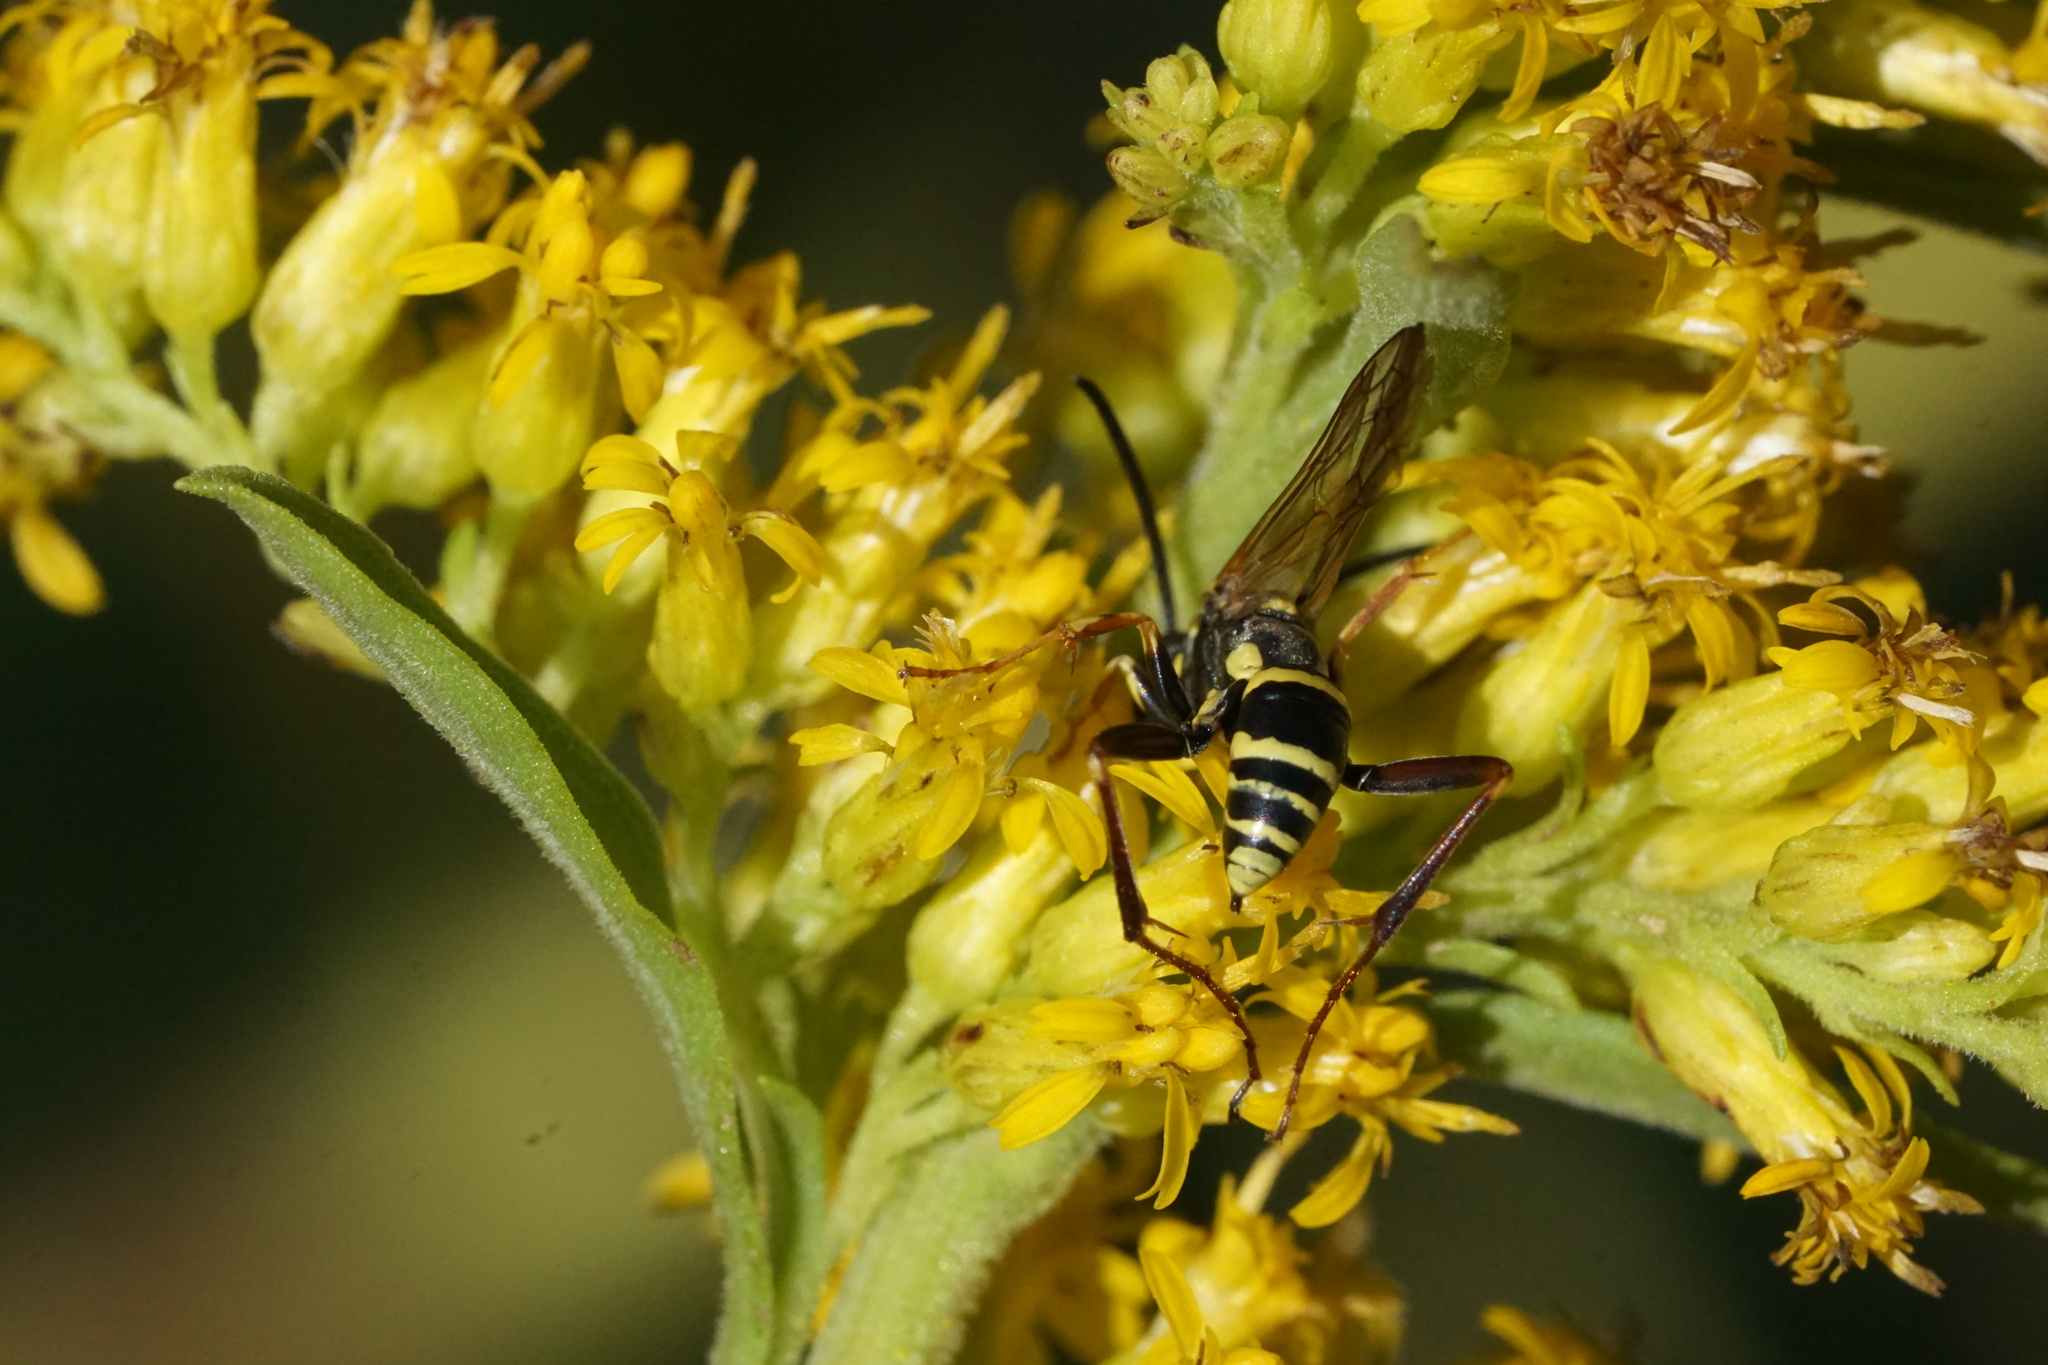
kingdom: Animalia
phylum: Arthropoda
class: Insecta
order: Hymenoptera
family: Pompilidae
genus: Ceropales
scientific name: Ceropales maculata
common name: Spider wasp
